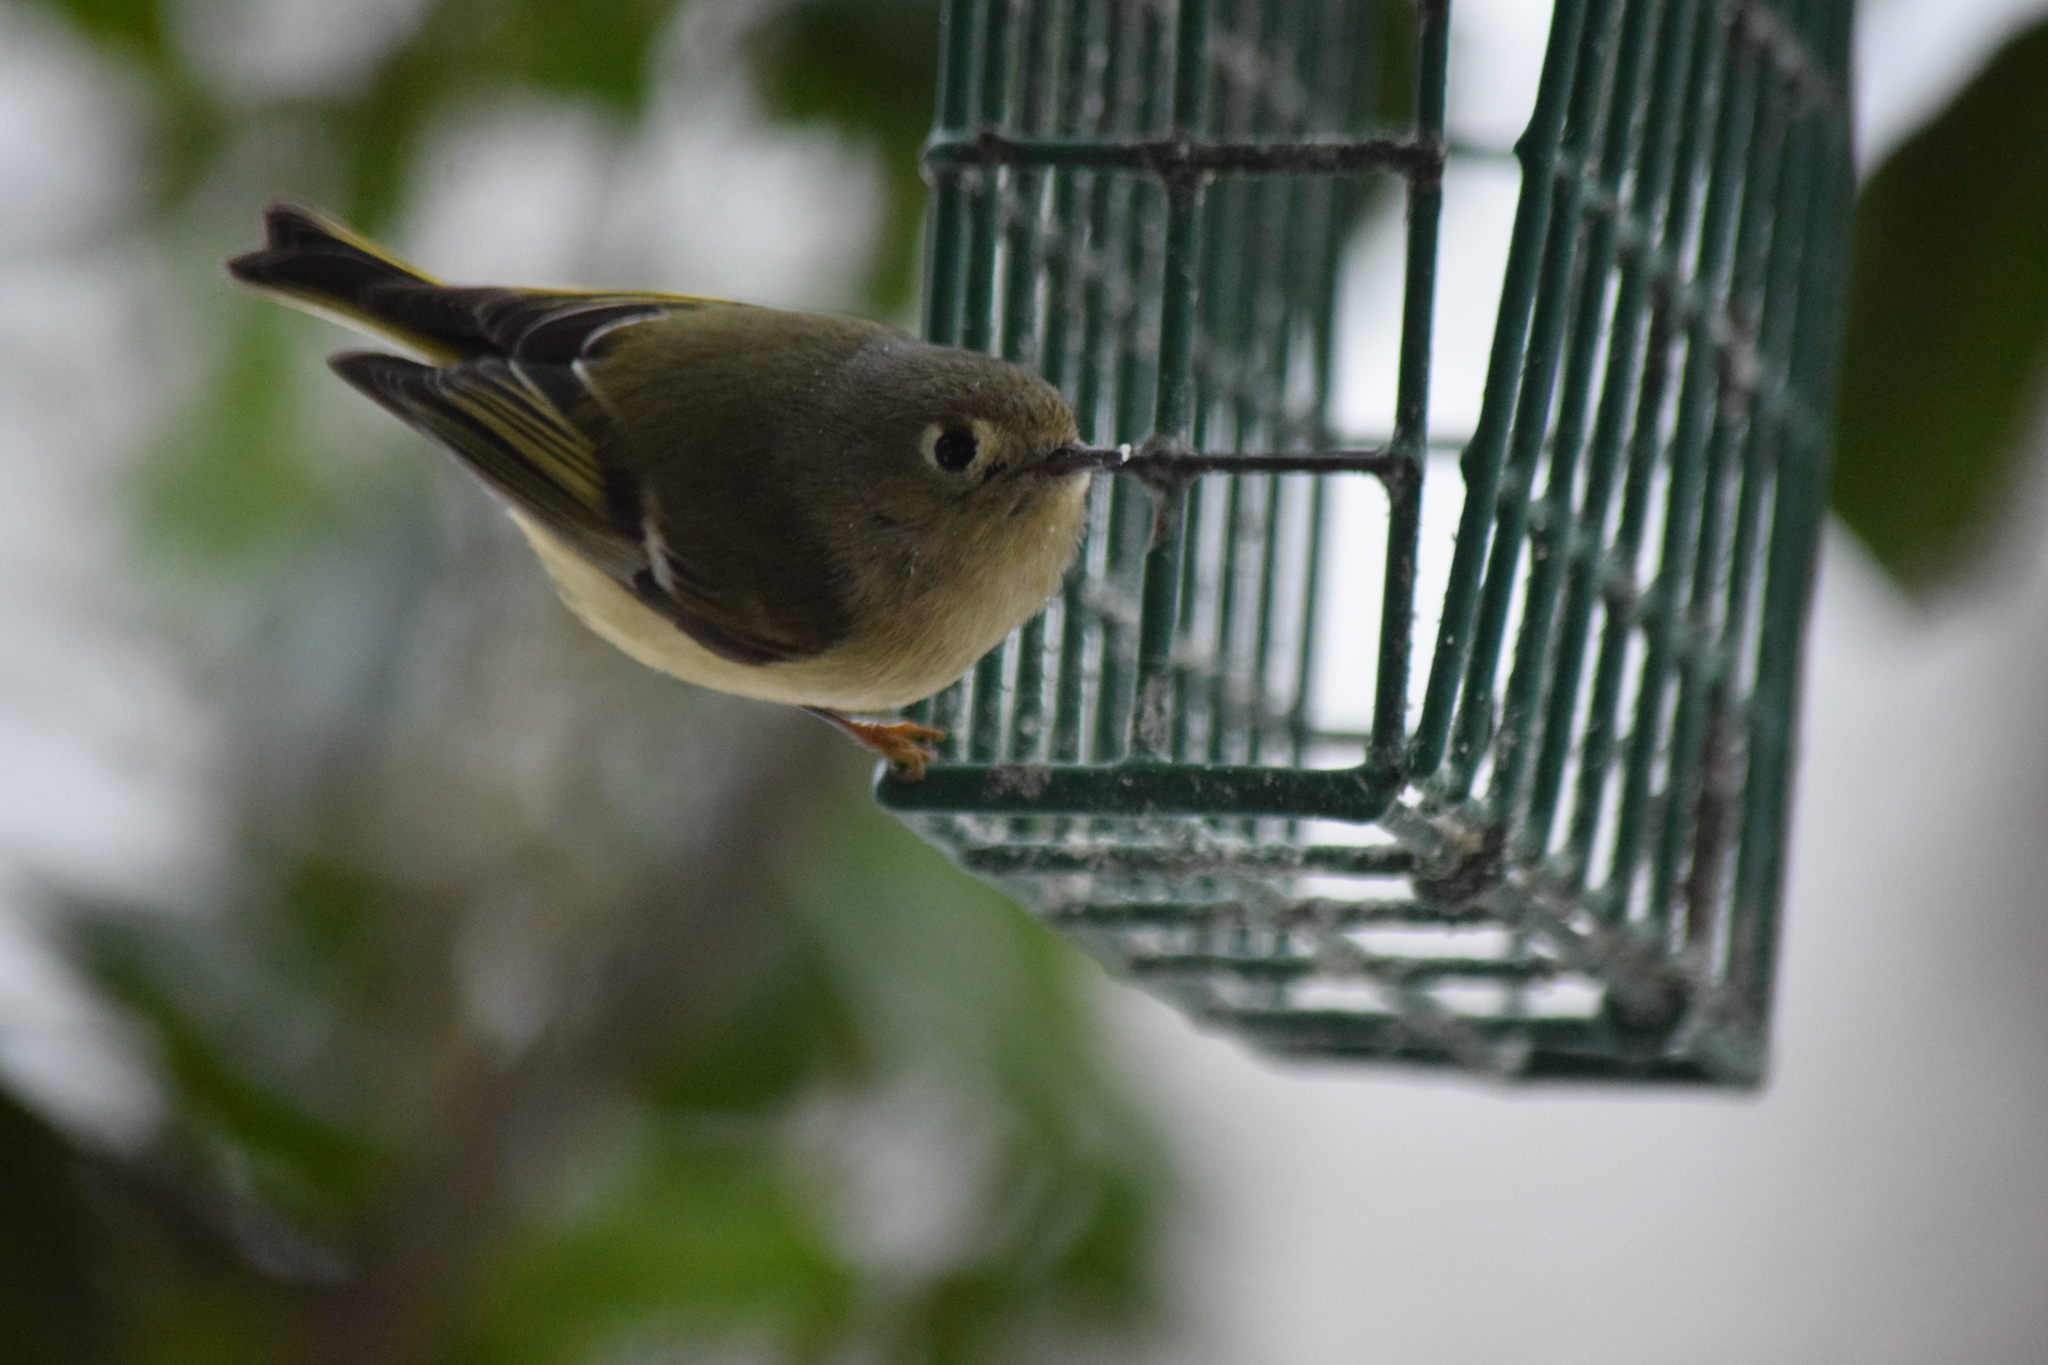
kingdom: Animalia
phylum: Chordata
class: Aves
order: Passeriformes
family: Regulidae
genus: Regulus
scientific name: Regulus calendula
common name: Ruby-crowned kinglet
